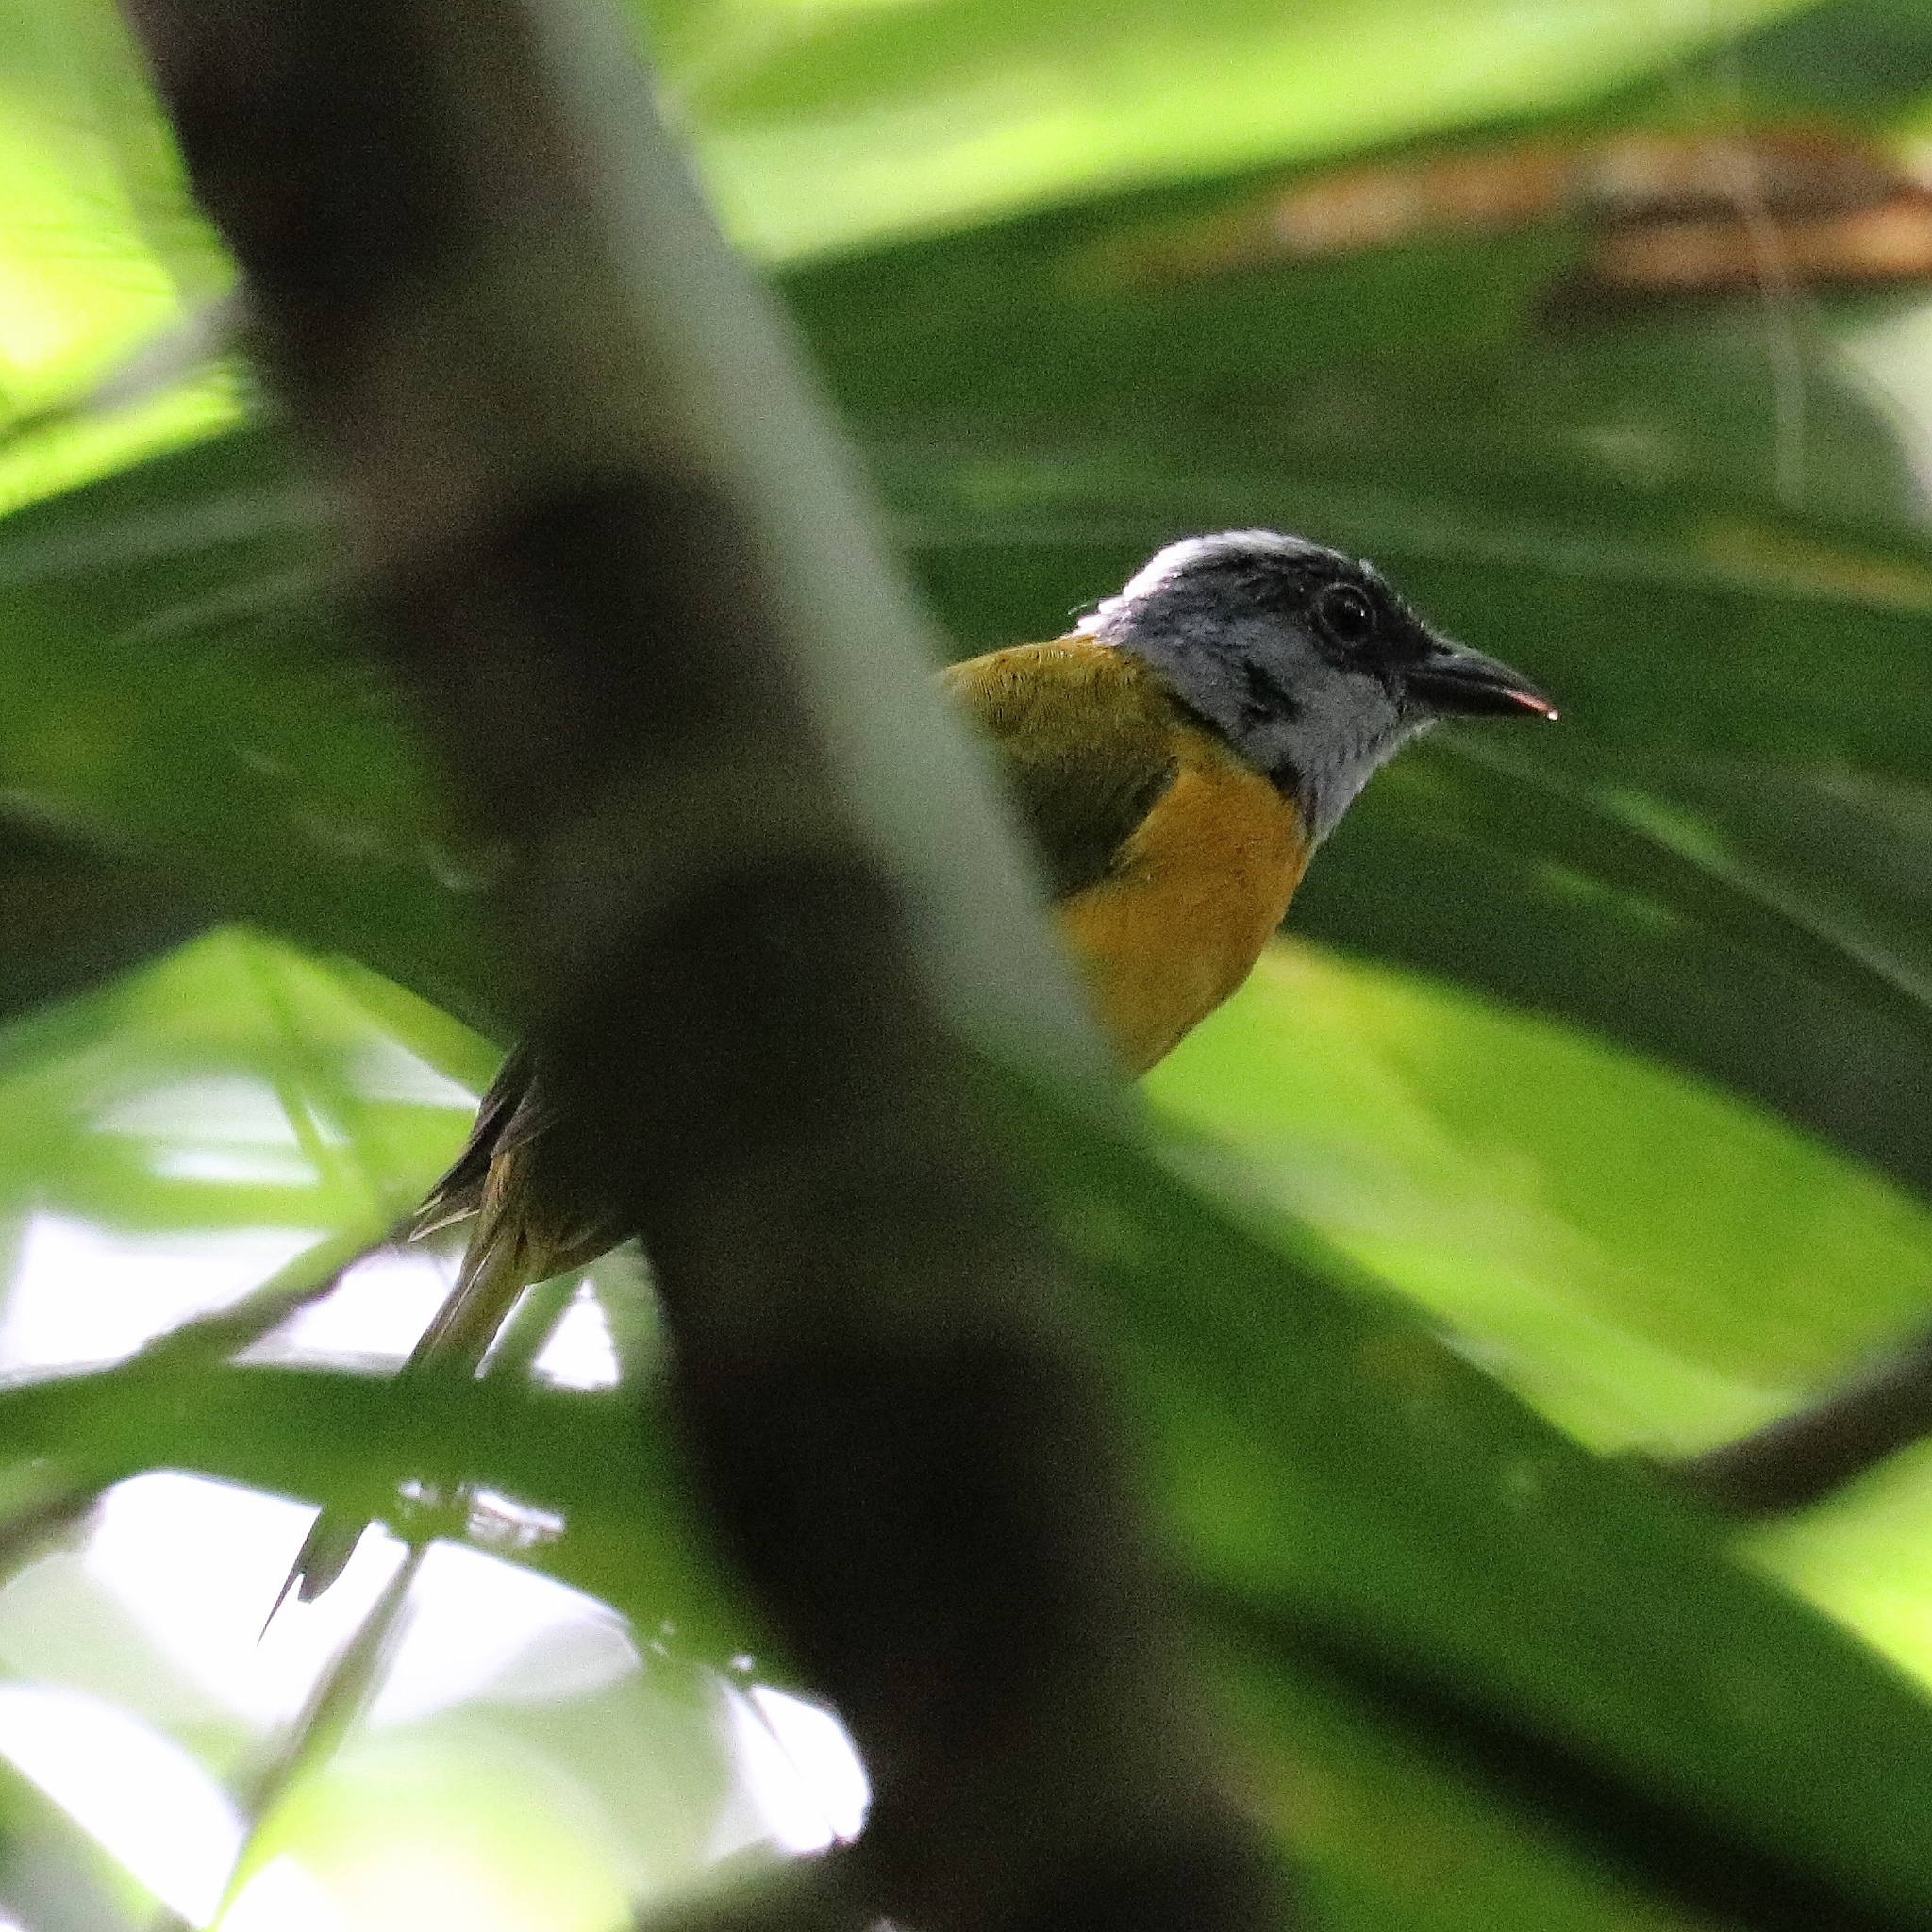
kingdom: Animalia
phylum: Chordata
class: Aves
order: Passeriformes
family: Thraupidae
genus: Eucometis
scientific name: Eucometis penicillata
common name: Grey-headed tanager
